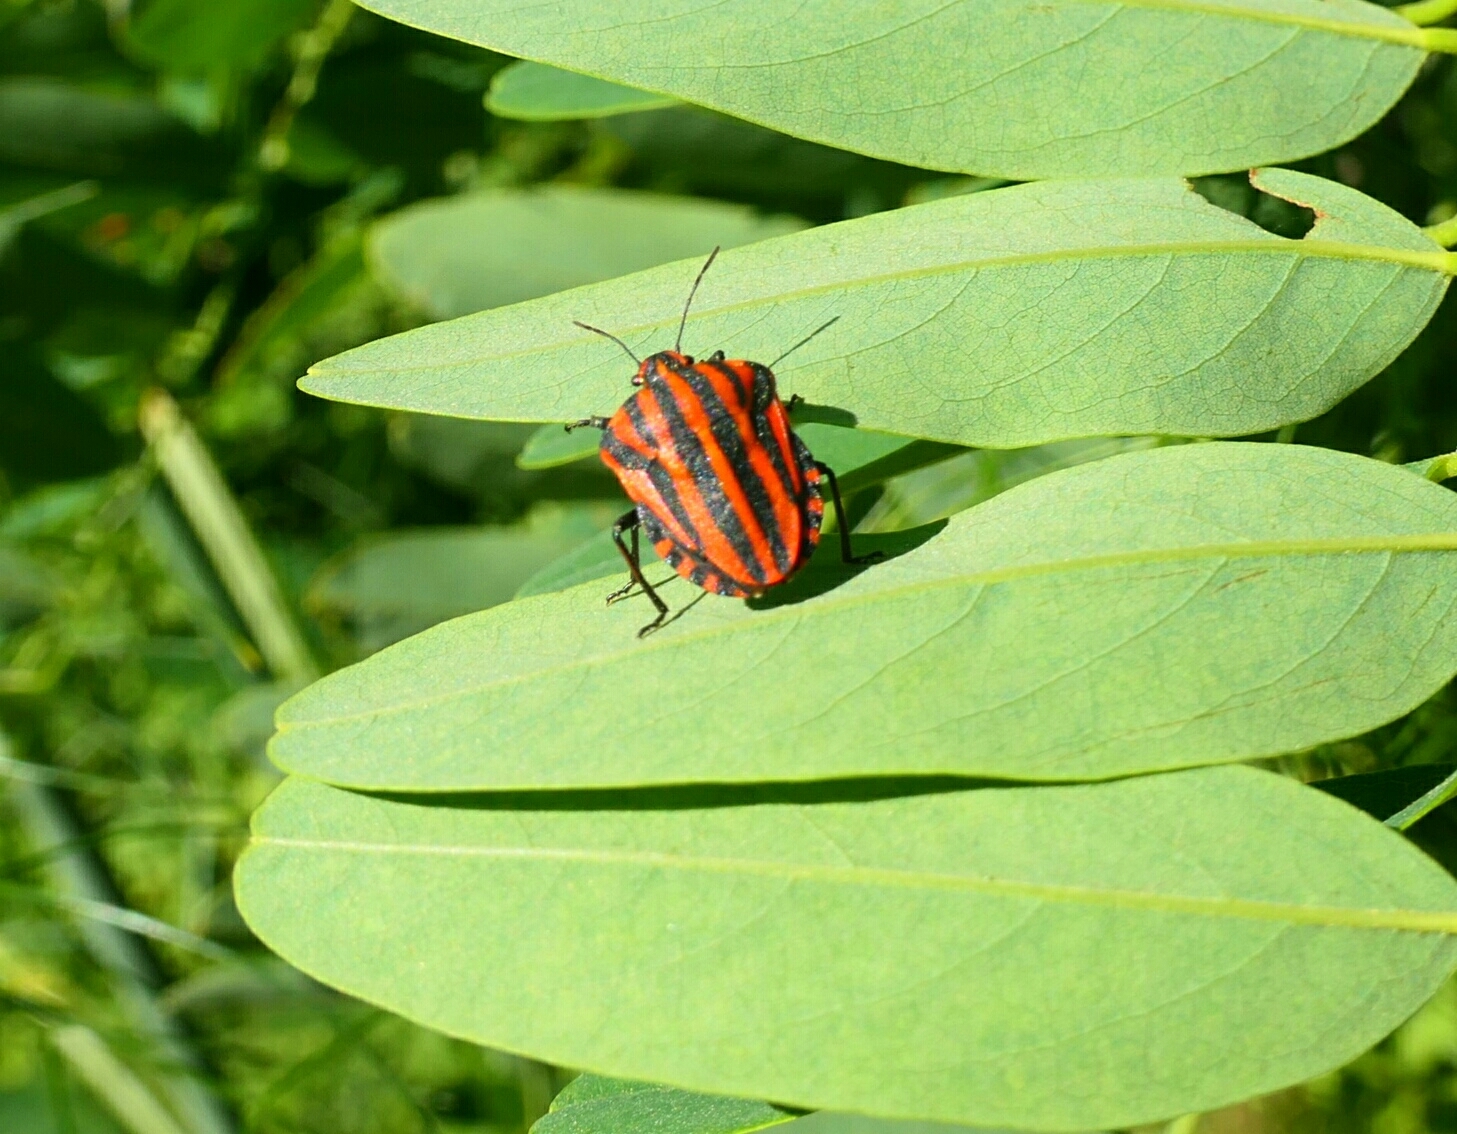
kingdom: Animalia
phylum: Arthropoda
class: Insecta
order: Hemiptera
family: Pentatomidae
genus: Graphosoma
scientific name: Graphosoma italicum
